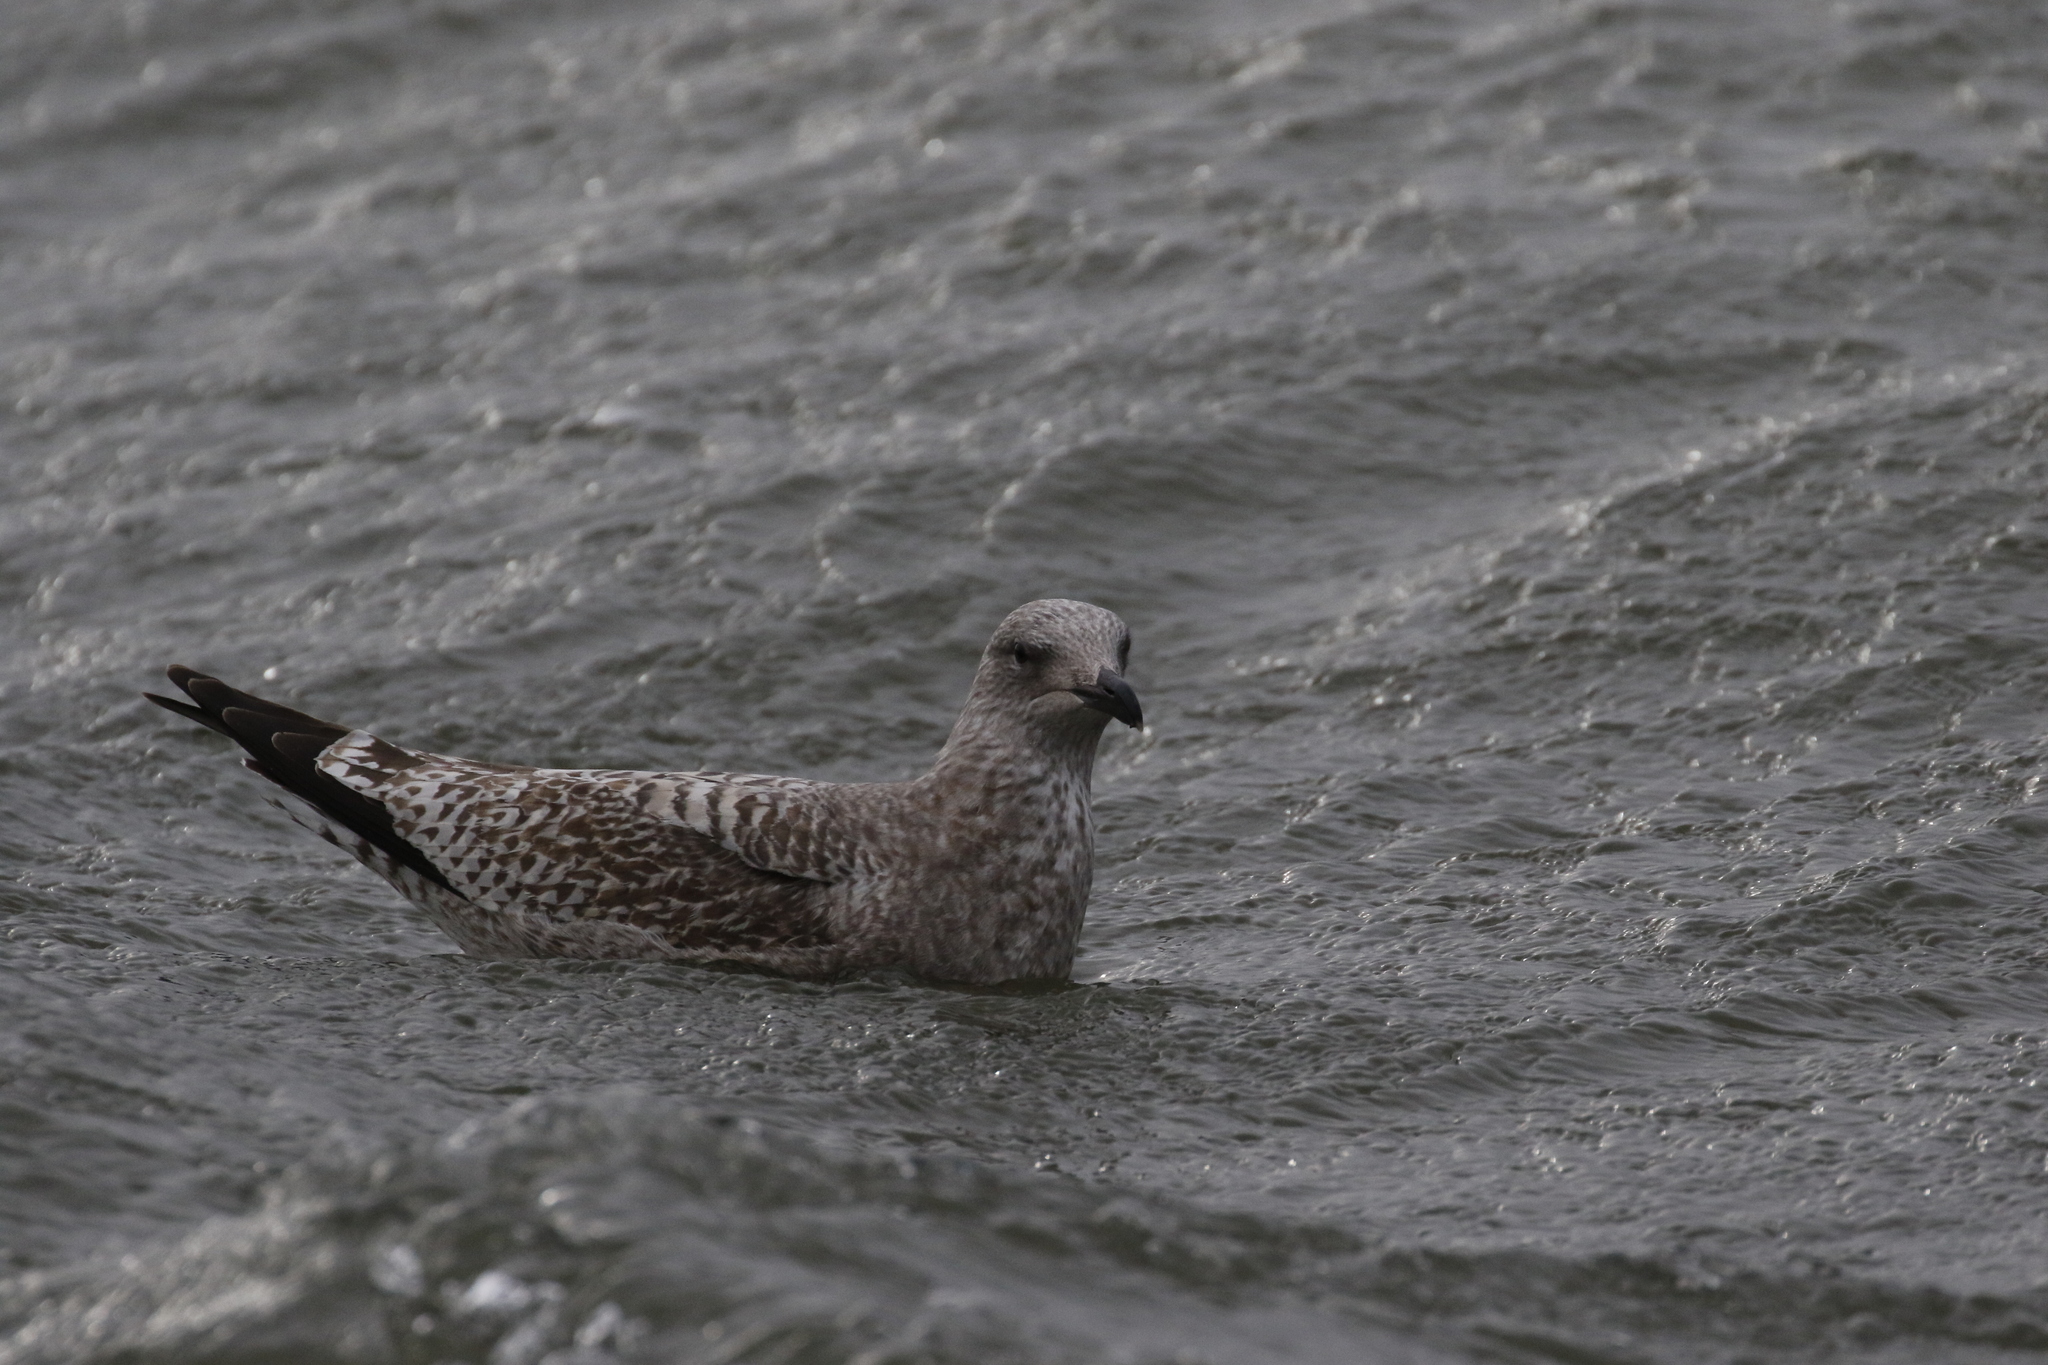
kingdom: Animalia
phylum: Chordata
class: Aves
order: Charadriiformes
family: Laridae
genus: Larus
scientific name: Larus argentatus
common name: Herring gull
